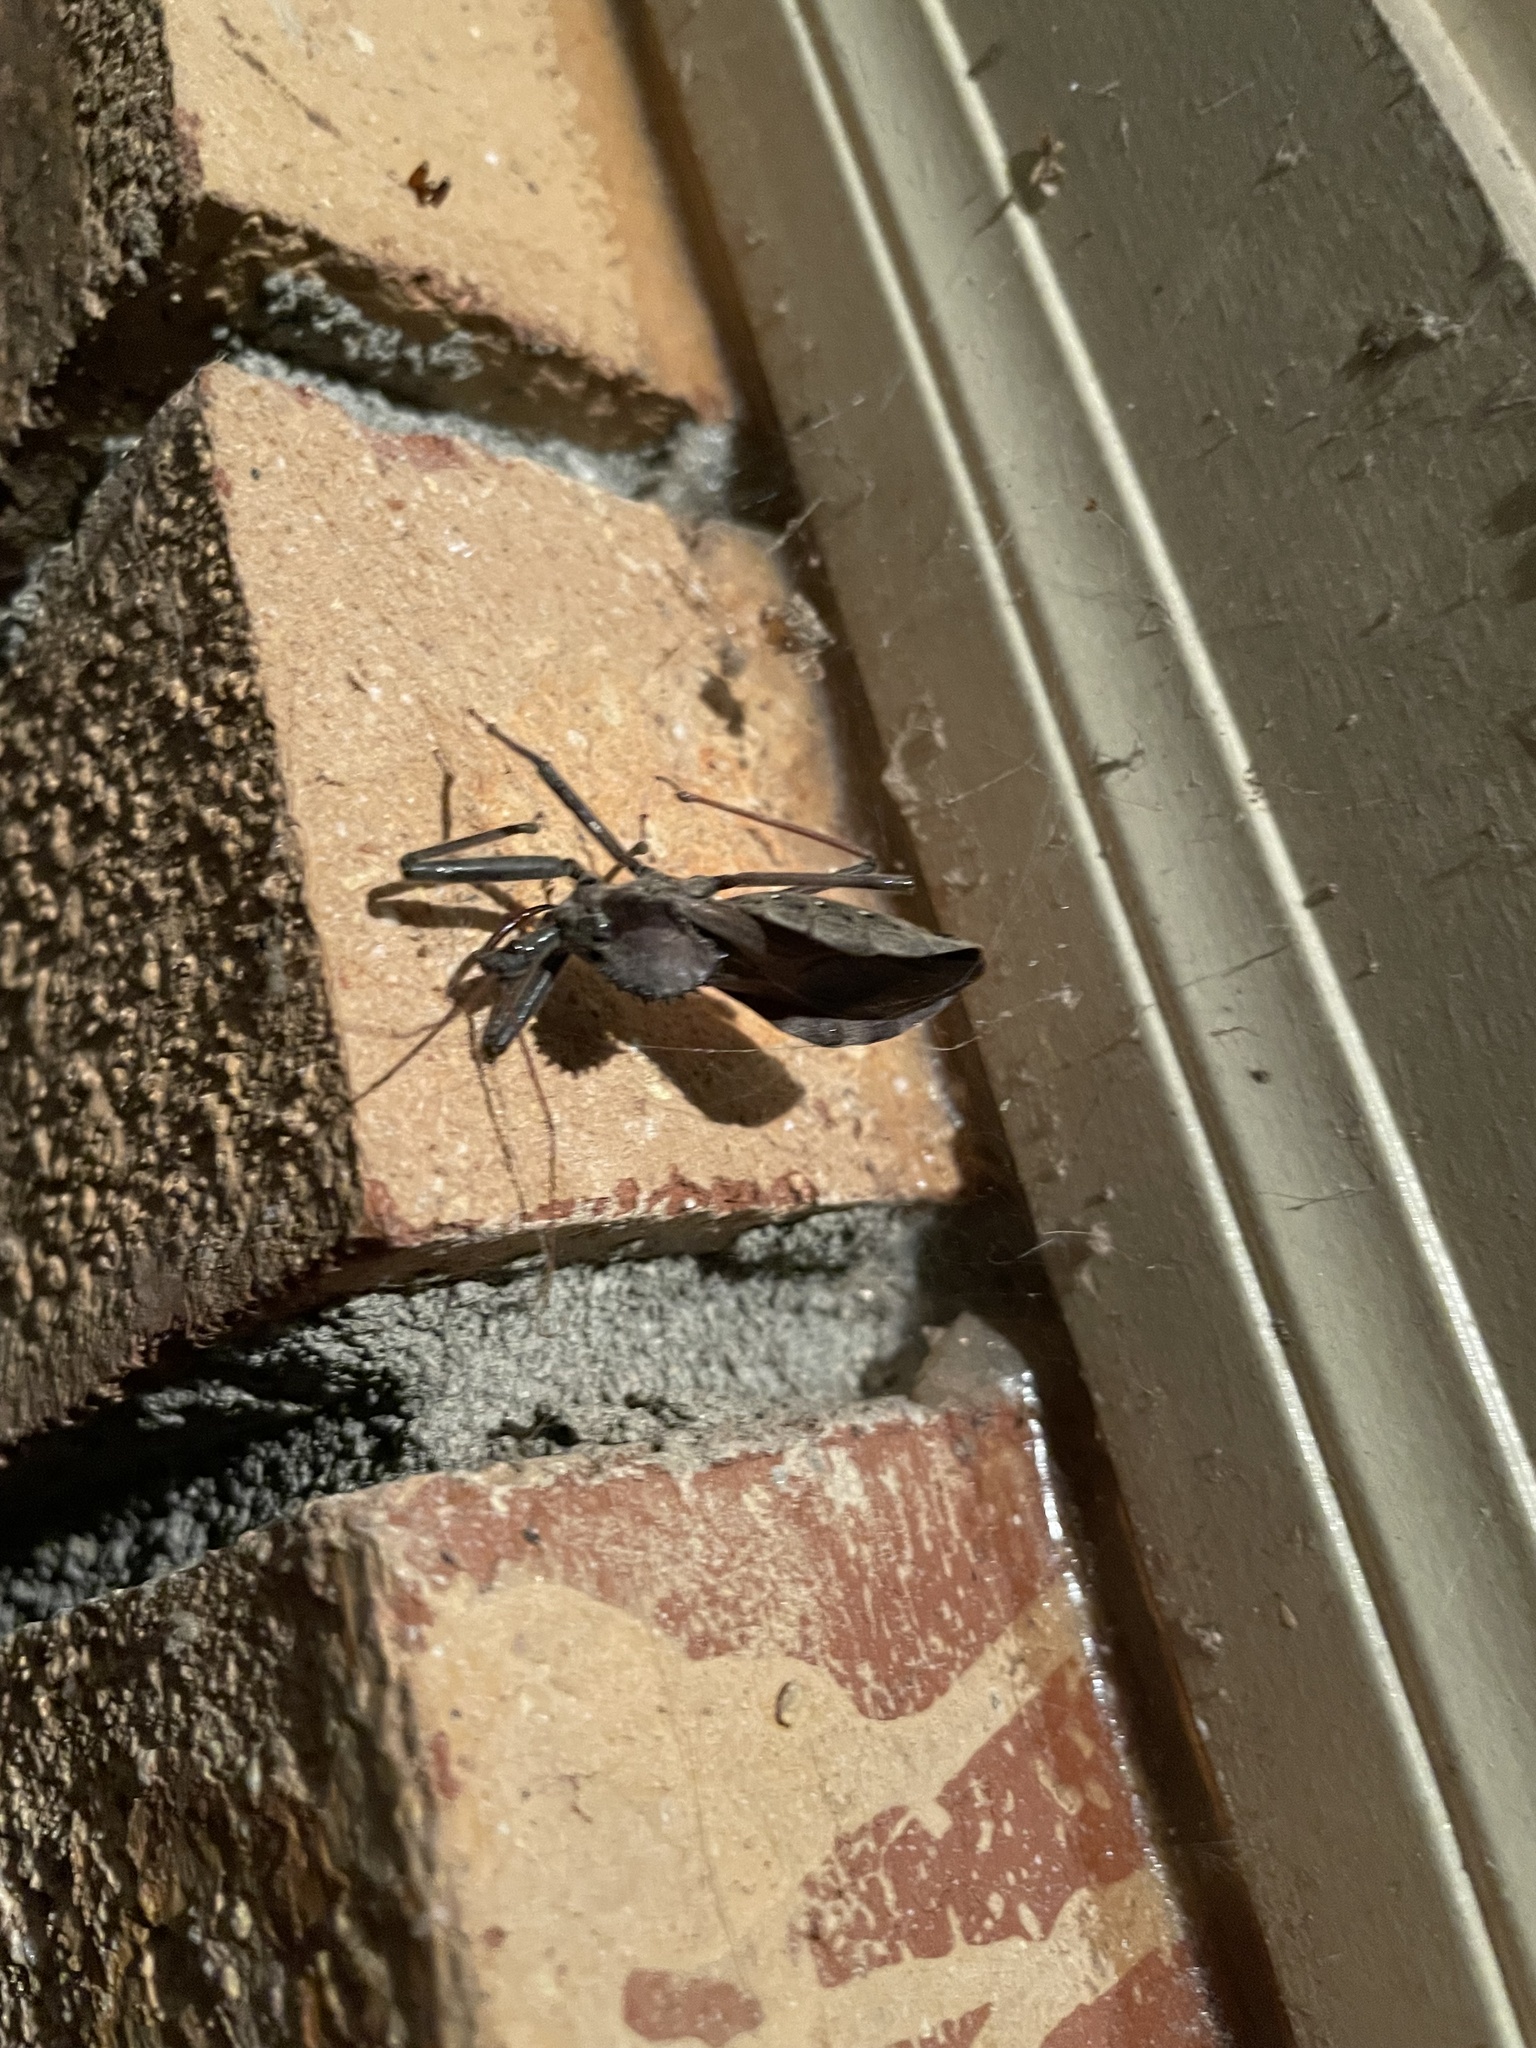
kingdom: Animalia
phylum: Arthropoda
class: Insecta
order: Hemiptera
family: Reduviidae
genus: Arilus
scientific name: Arilus cristatus
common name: North american wheel bug
